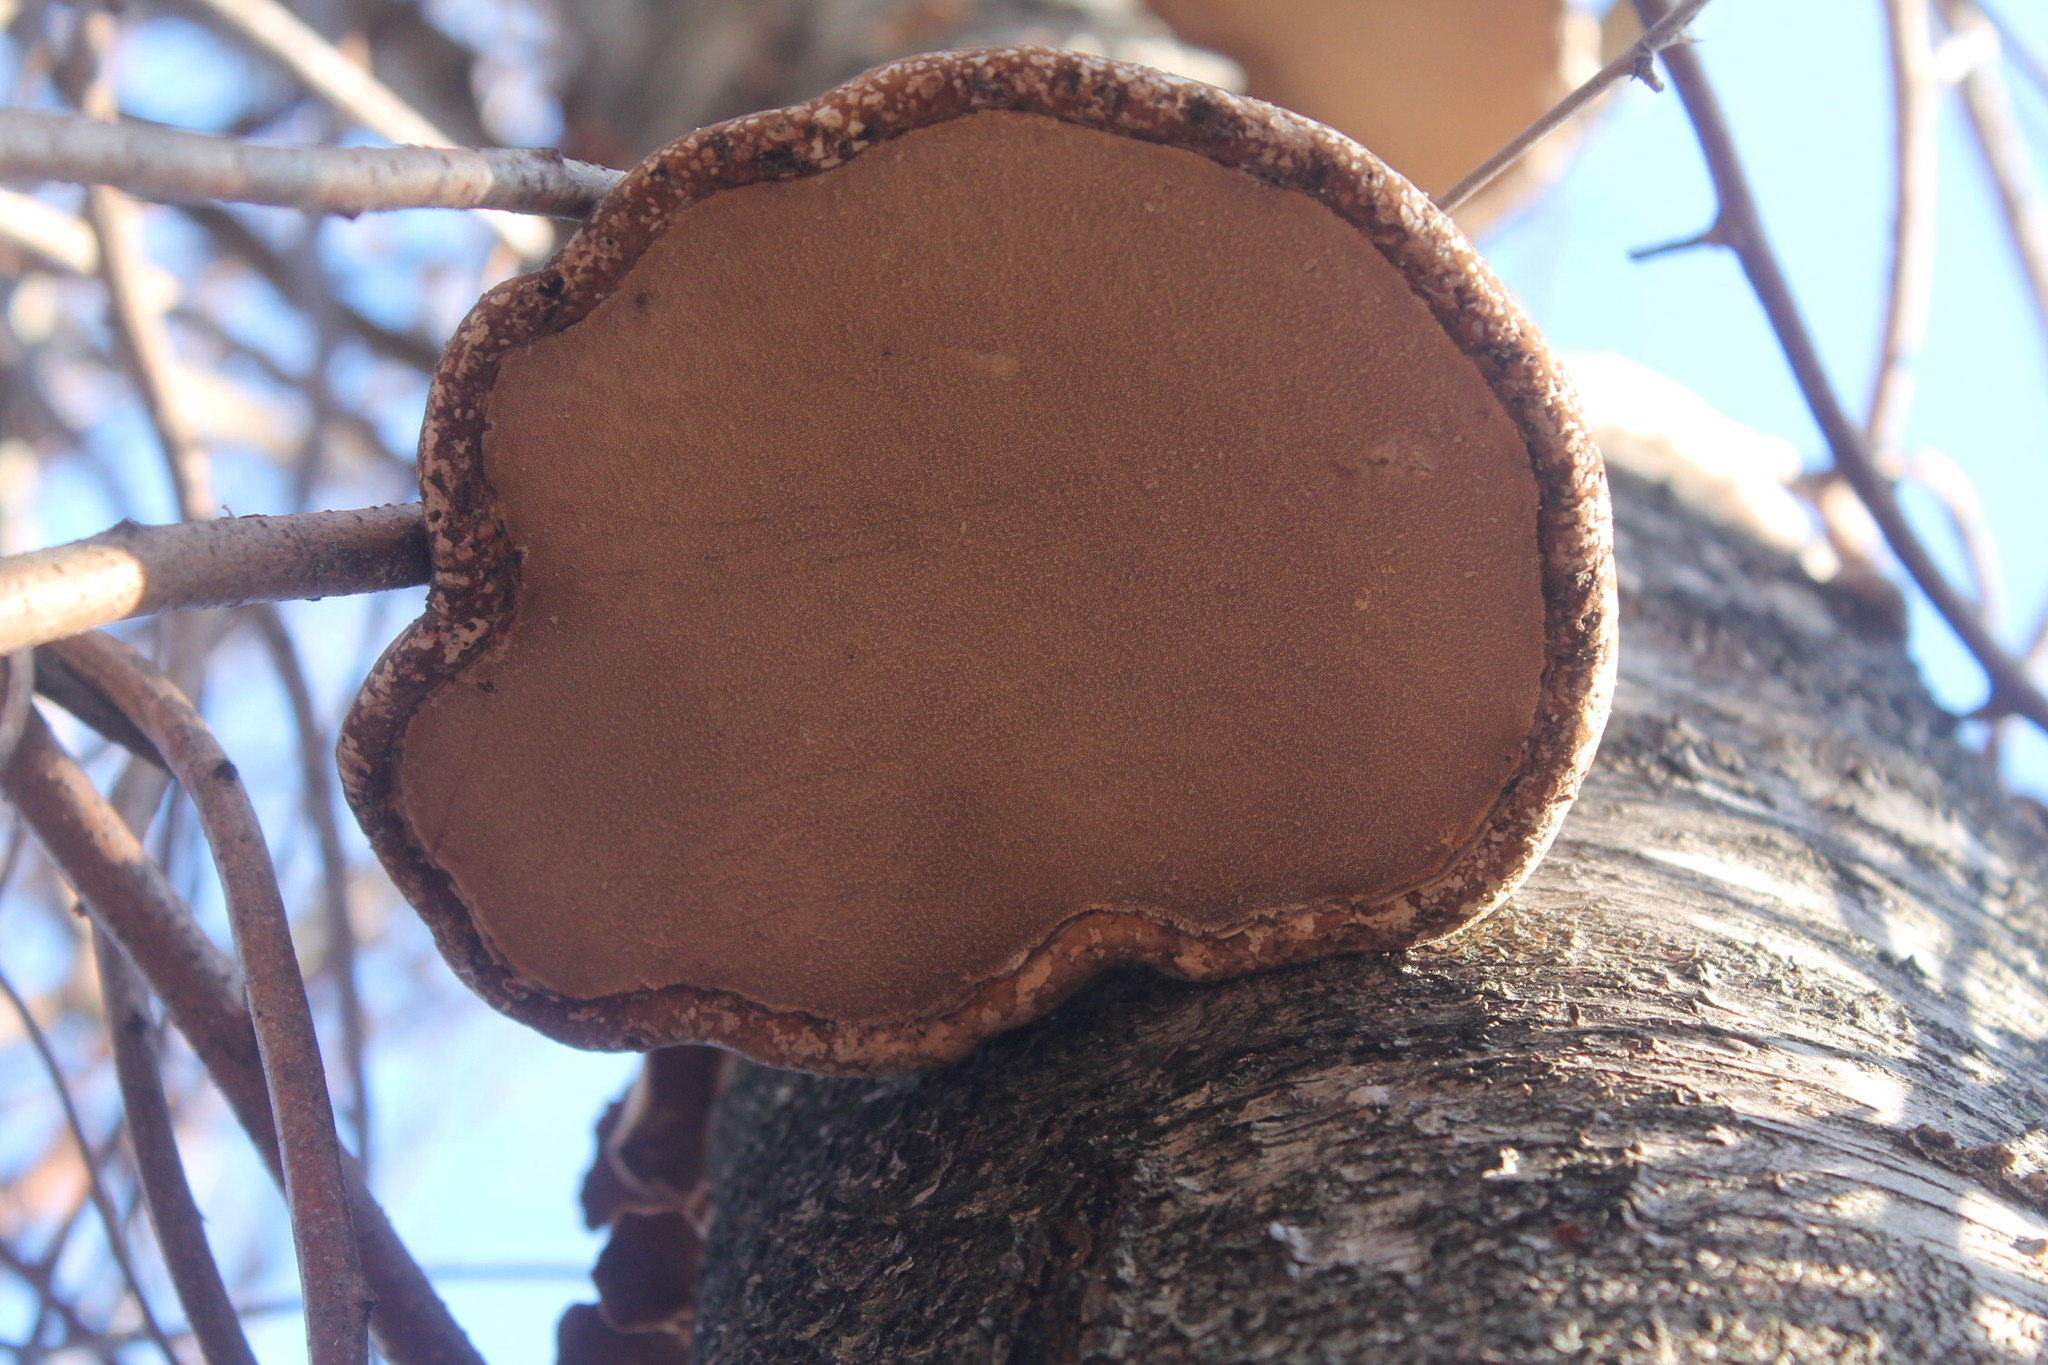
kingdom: Fungi
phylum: Basidiomycota
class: Agaricomycetes
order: Polyporales
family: Fomitopsidaceae
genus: Fomitopsis
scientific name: Fomitopsis betulina
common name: Birch polypore
